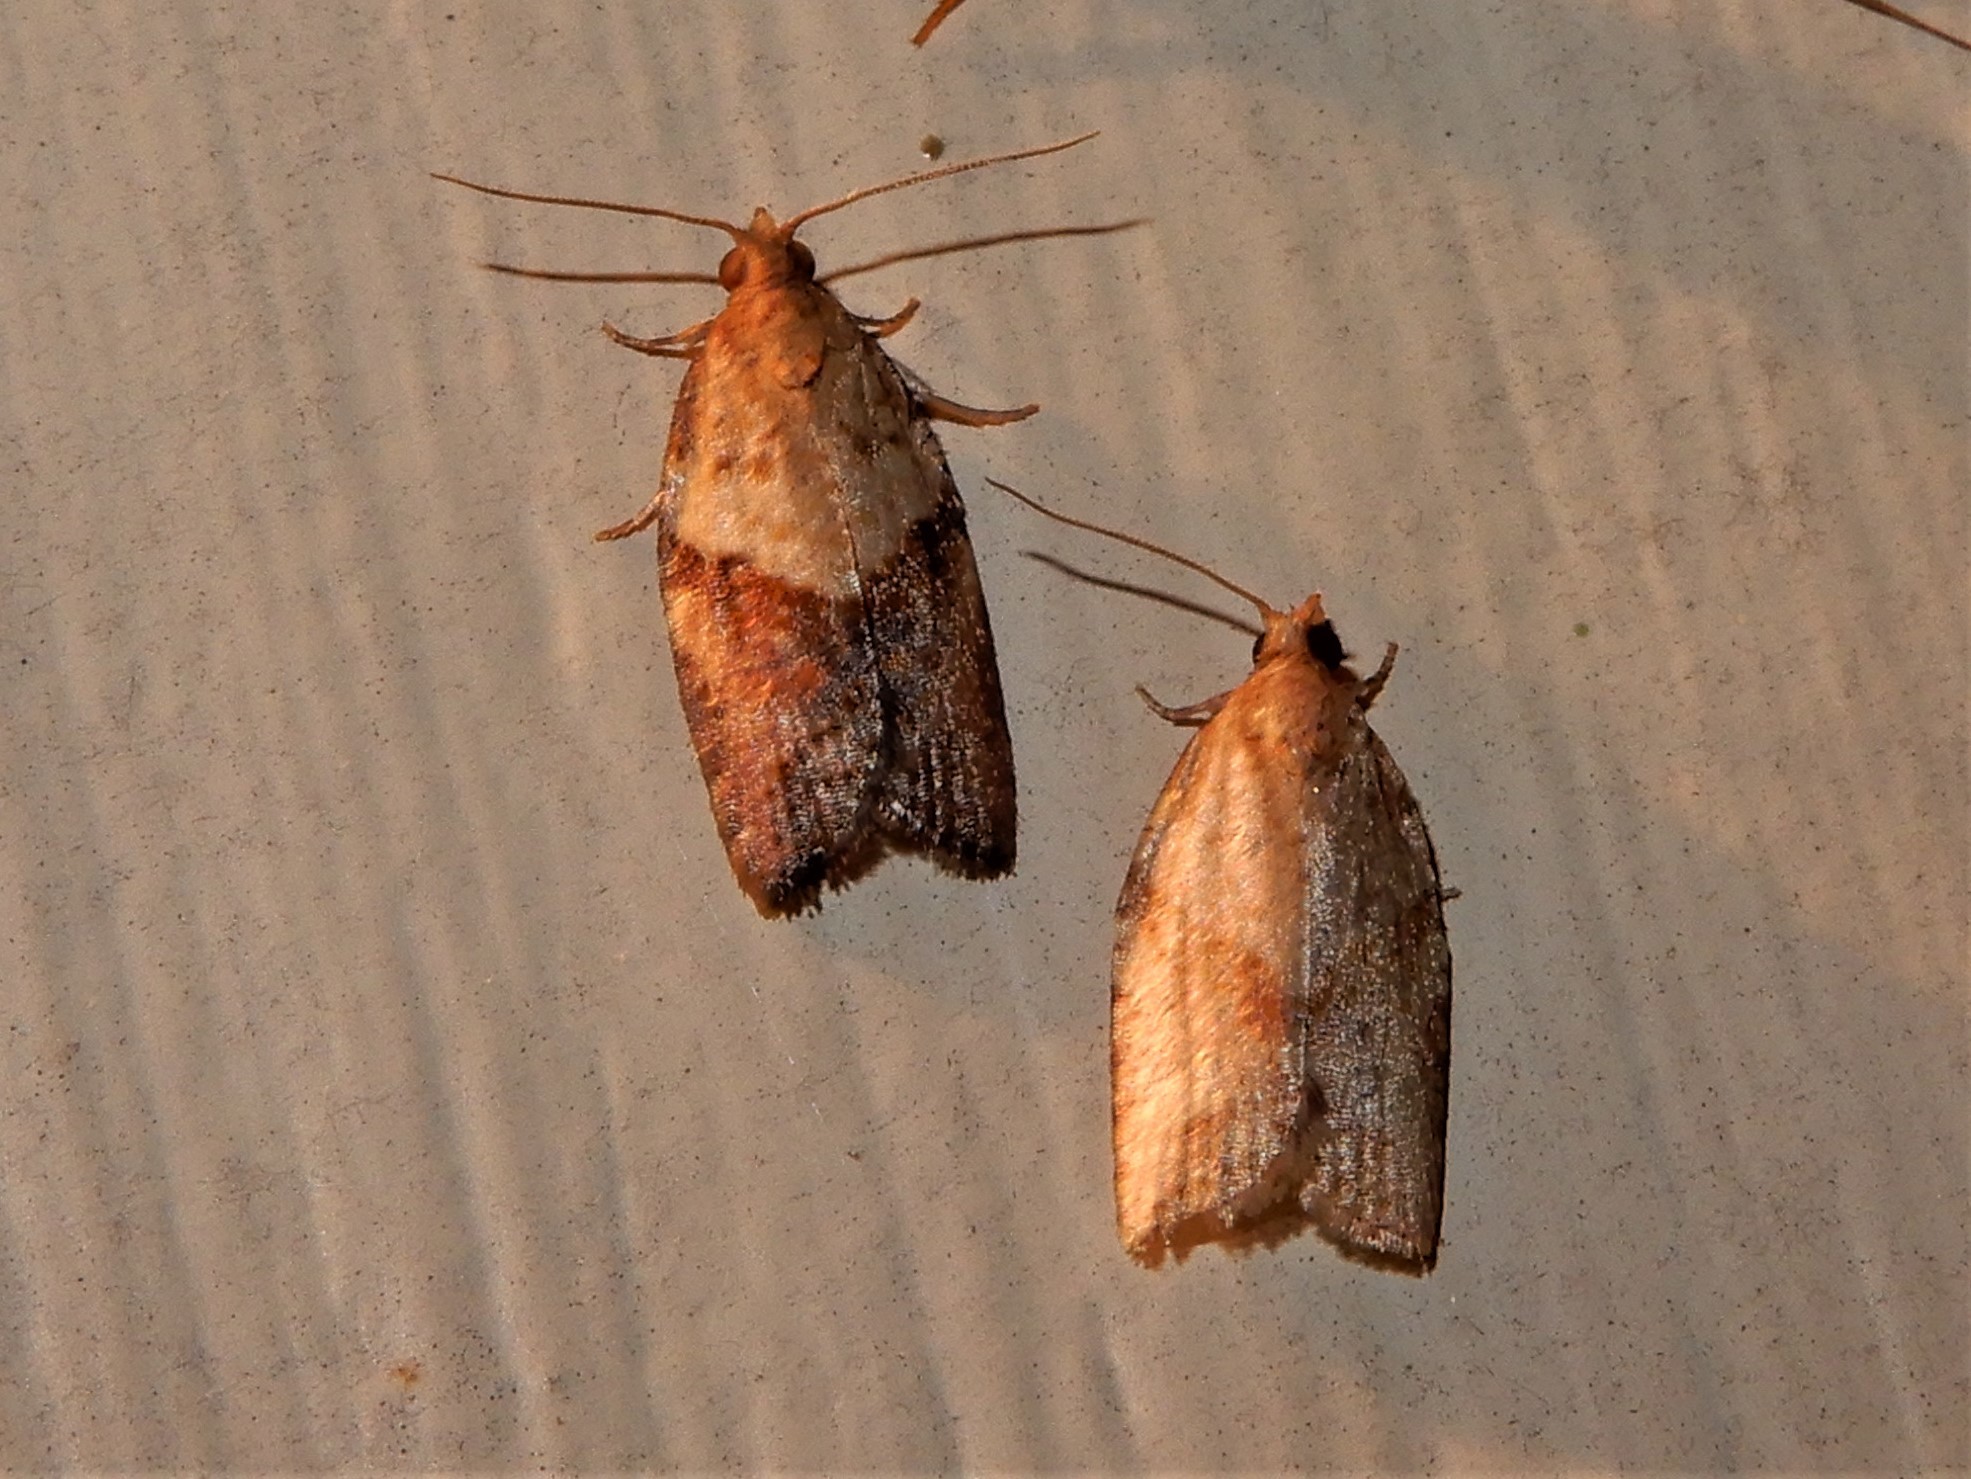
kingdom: Animalia
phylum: Arthropoda
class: Insecta
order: Lepidoptera
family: Tortricidae
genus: Epiphyas
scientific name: Epiphyas postvittana
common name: Light brown apple moth
